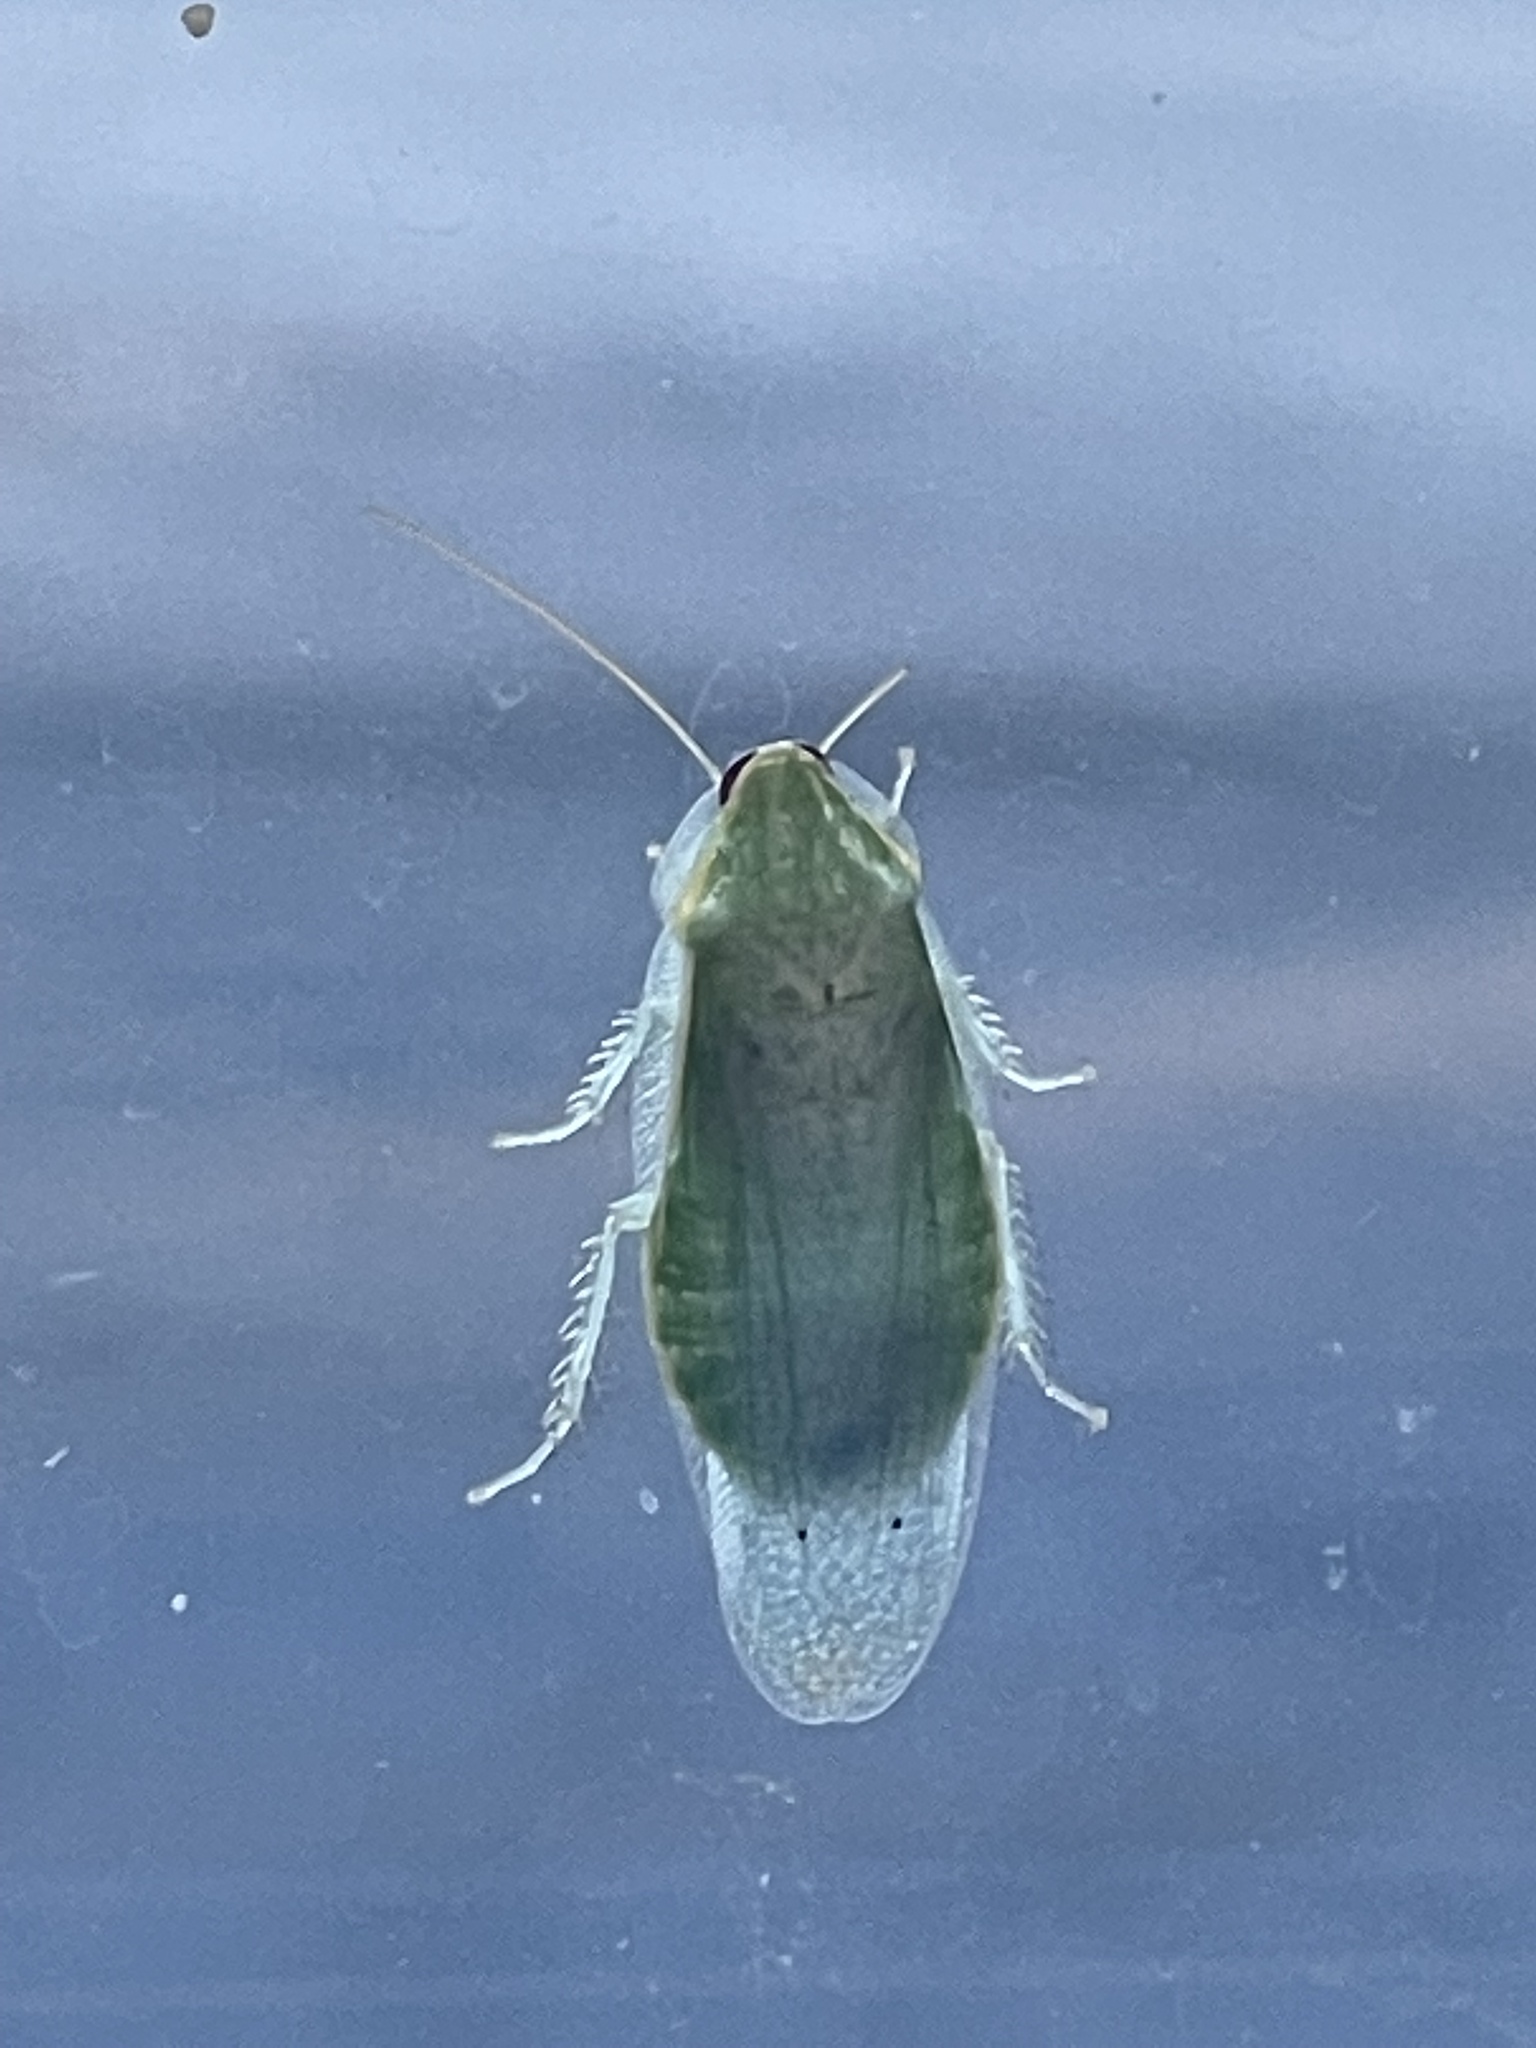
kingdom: Animalia
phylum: Arthropoda
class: Insecta
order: Blattodea
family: Blaberidae
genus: Panchlora
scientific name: Panchlora nivea
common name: Cuban cockroach
